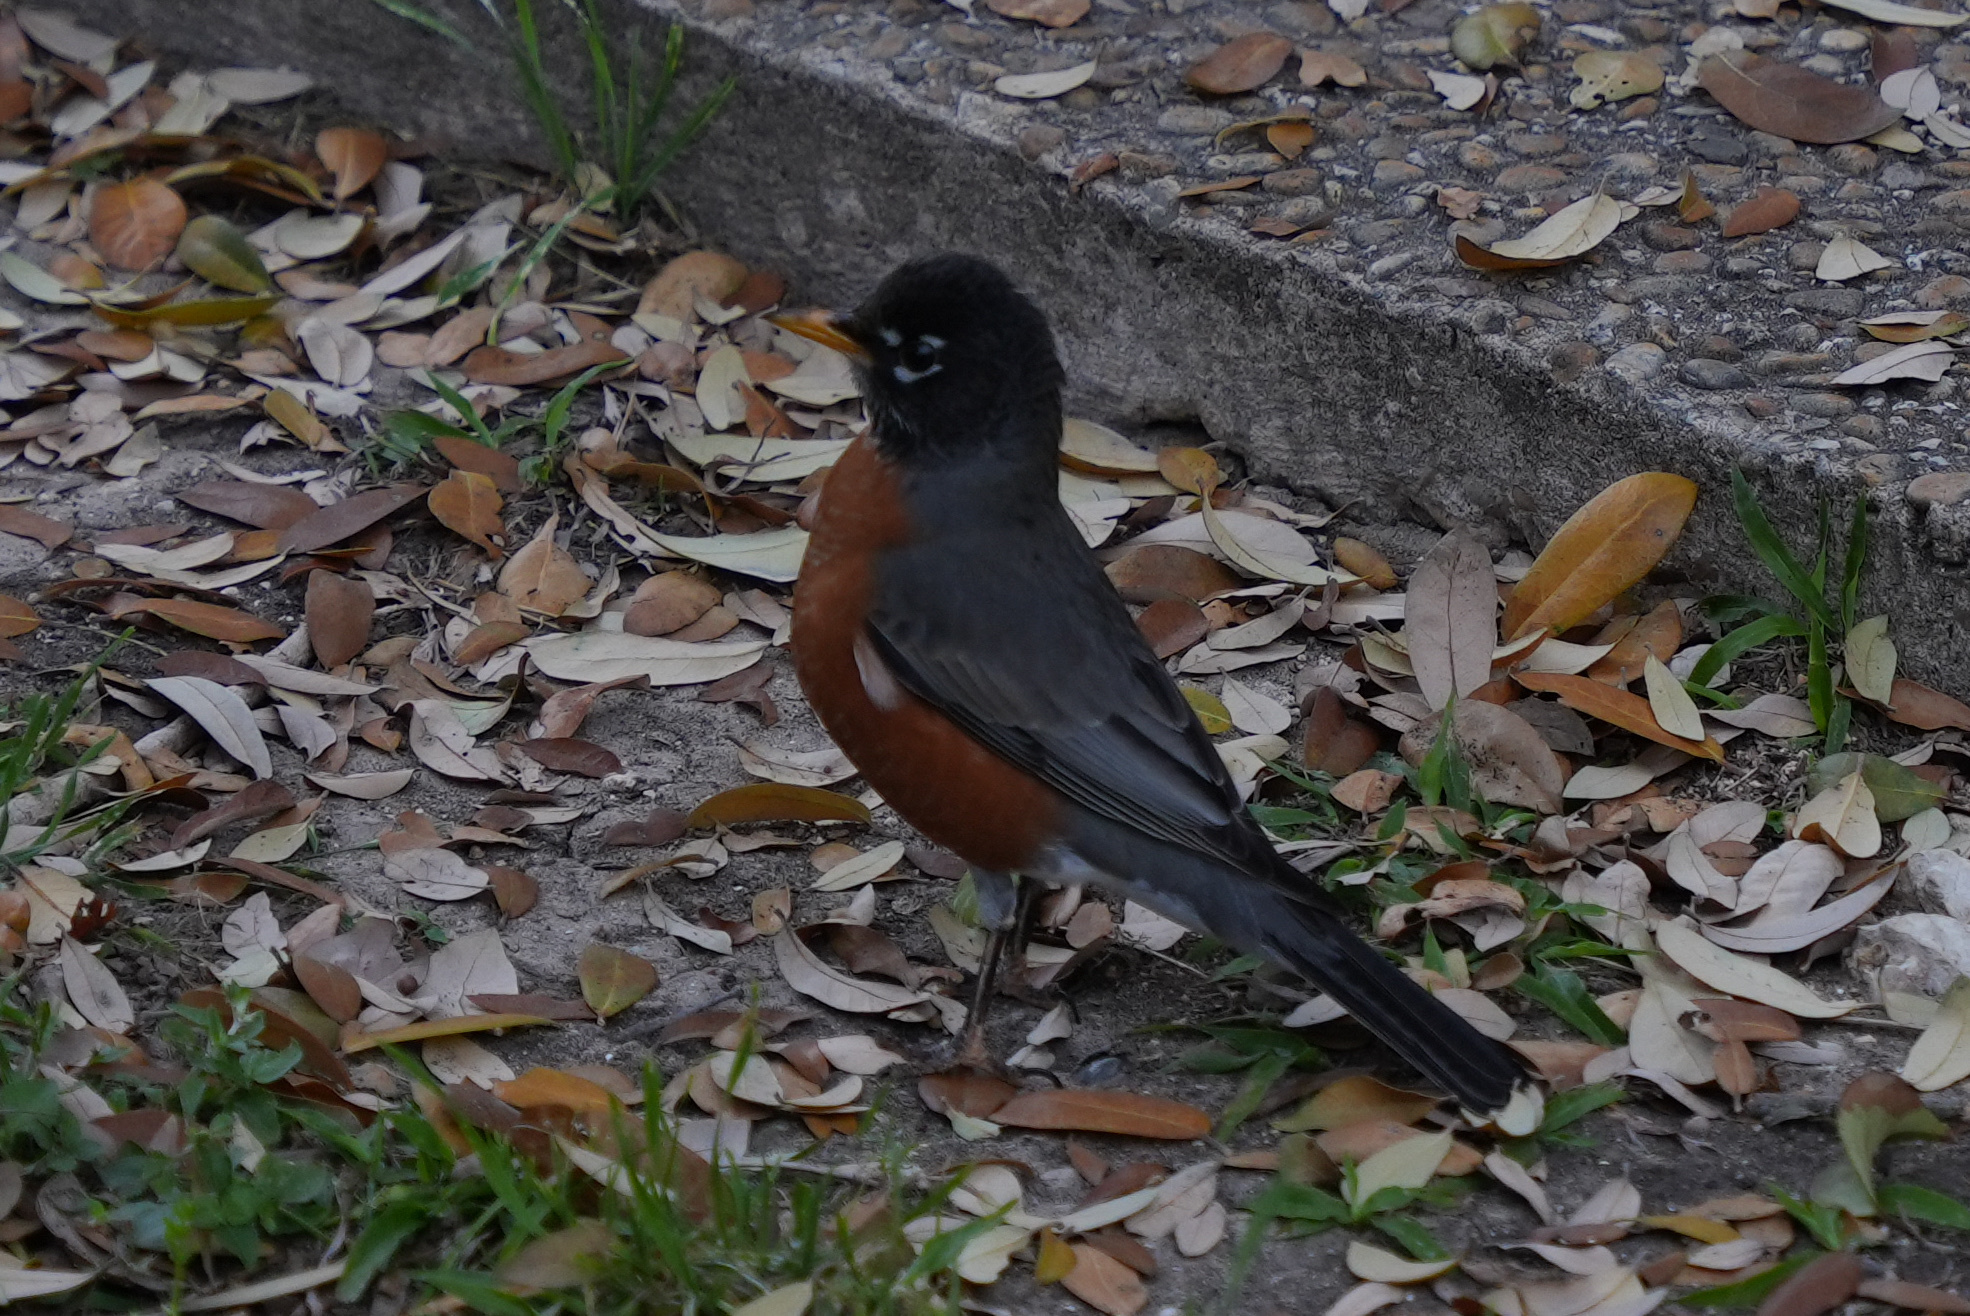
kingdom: Animalia
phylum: Chordata
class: Aves
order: Passeriformes
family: Turdidae
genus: Turdus
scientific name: Turdus migratorius
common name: American robin
